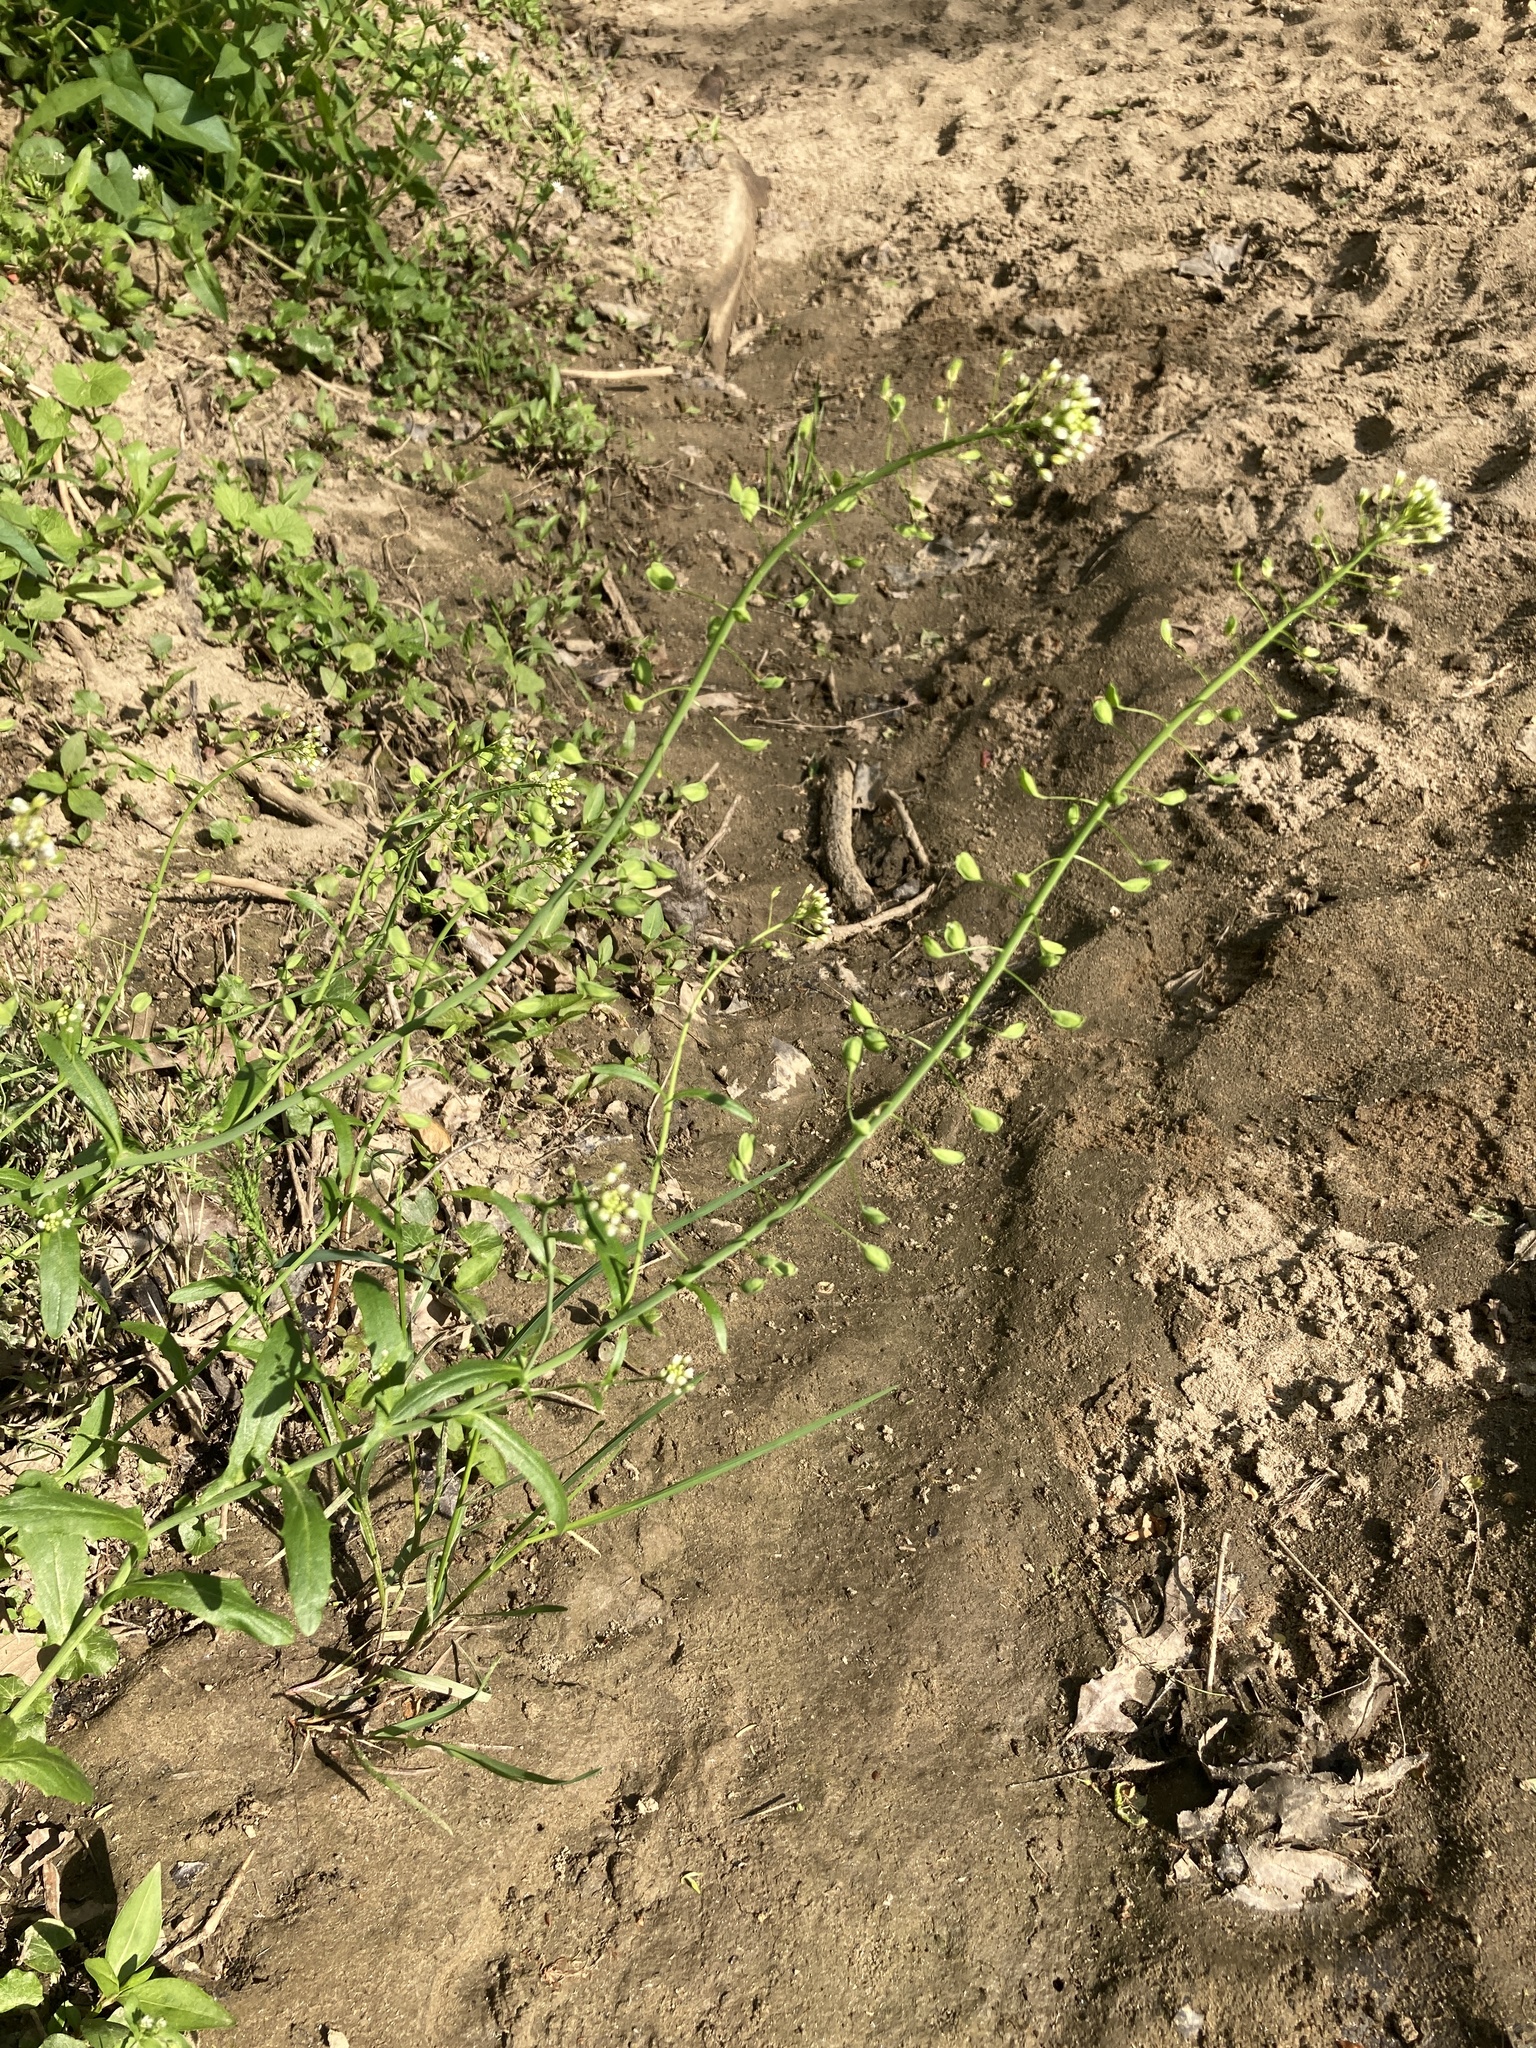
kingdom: Plantae
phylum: Tracheophyta
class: Magnoliopsida
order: Brassicales
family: Brassicaceae
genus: Mummenhoffia
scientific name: Mummenhoffia alliacea
